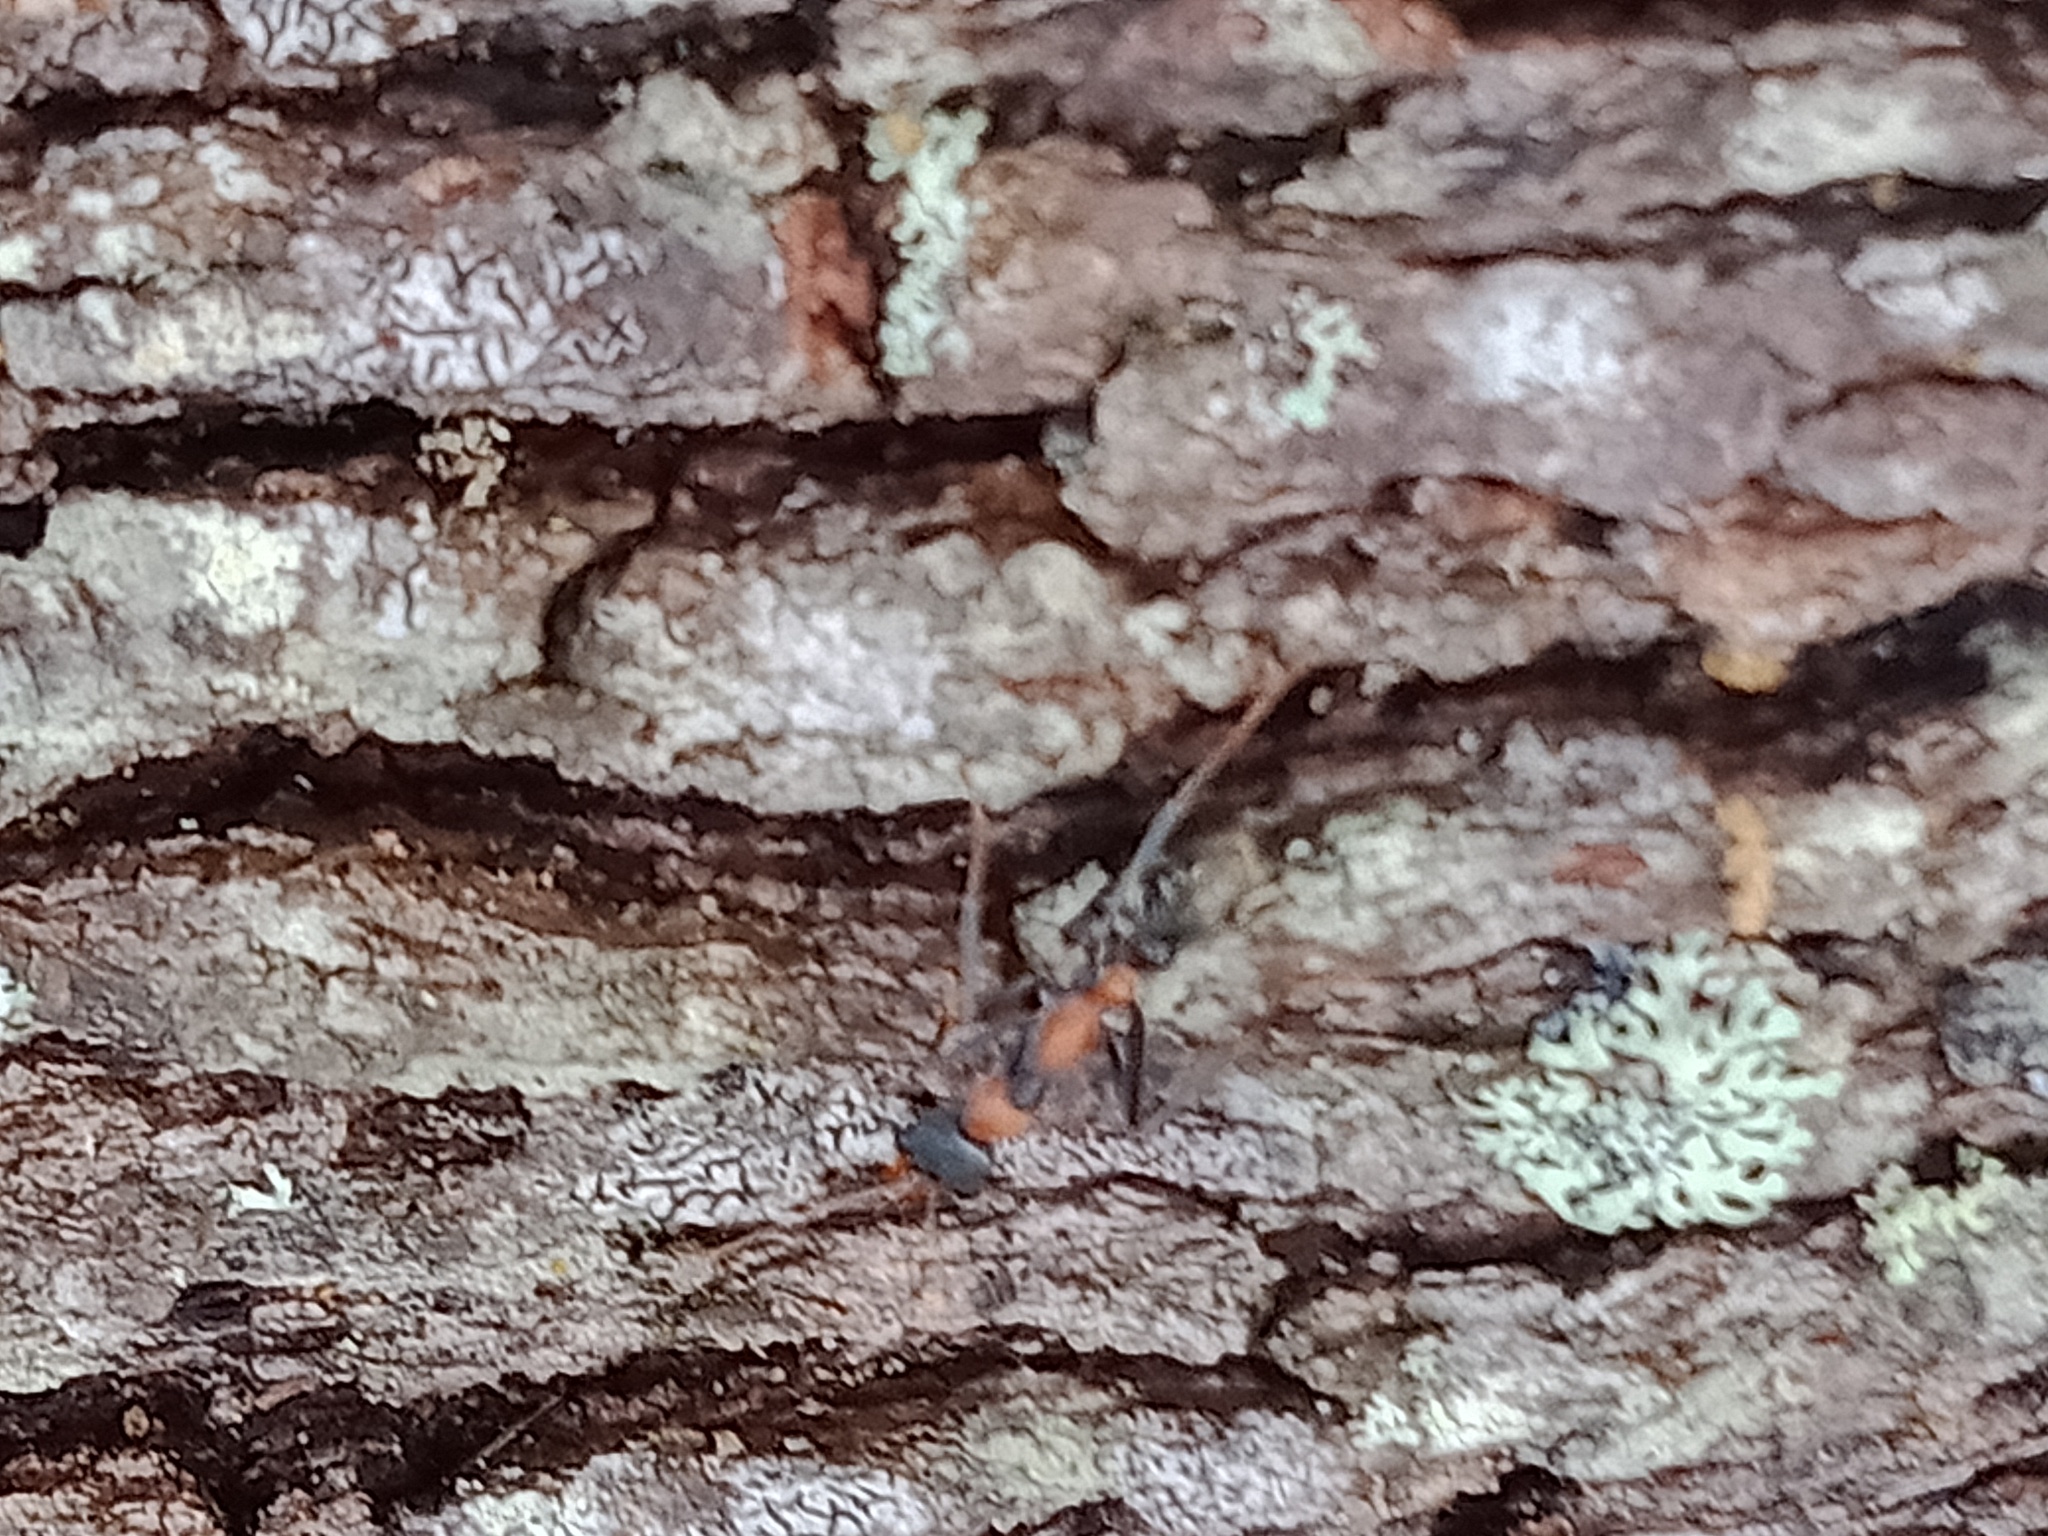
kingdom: Animalia
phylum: Arthropoda
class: Insecta
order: Hymenoptera
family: Formicidae
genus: Myrmecia
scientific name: Myrmecia nigrocincta
